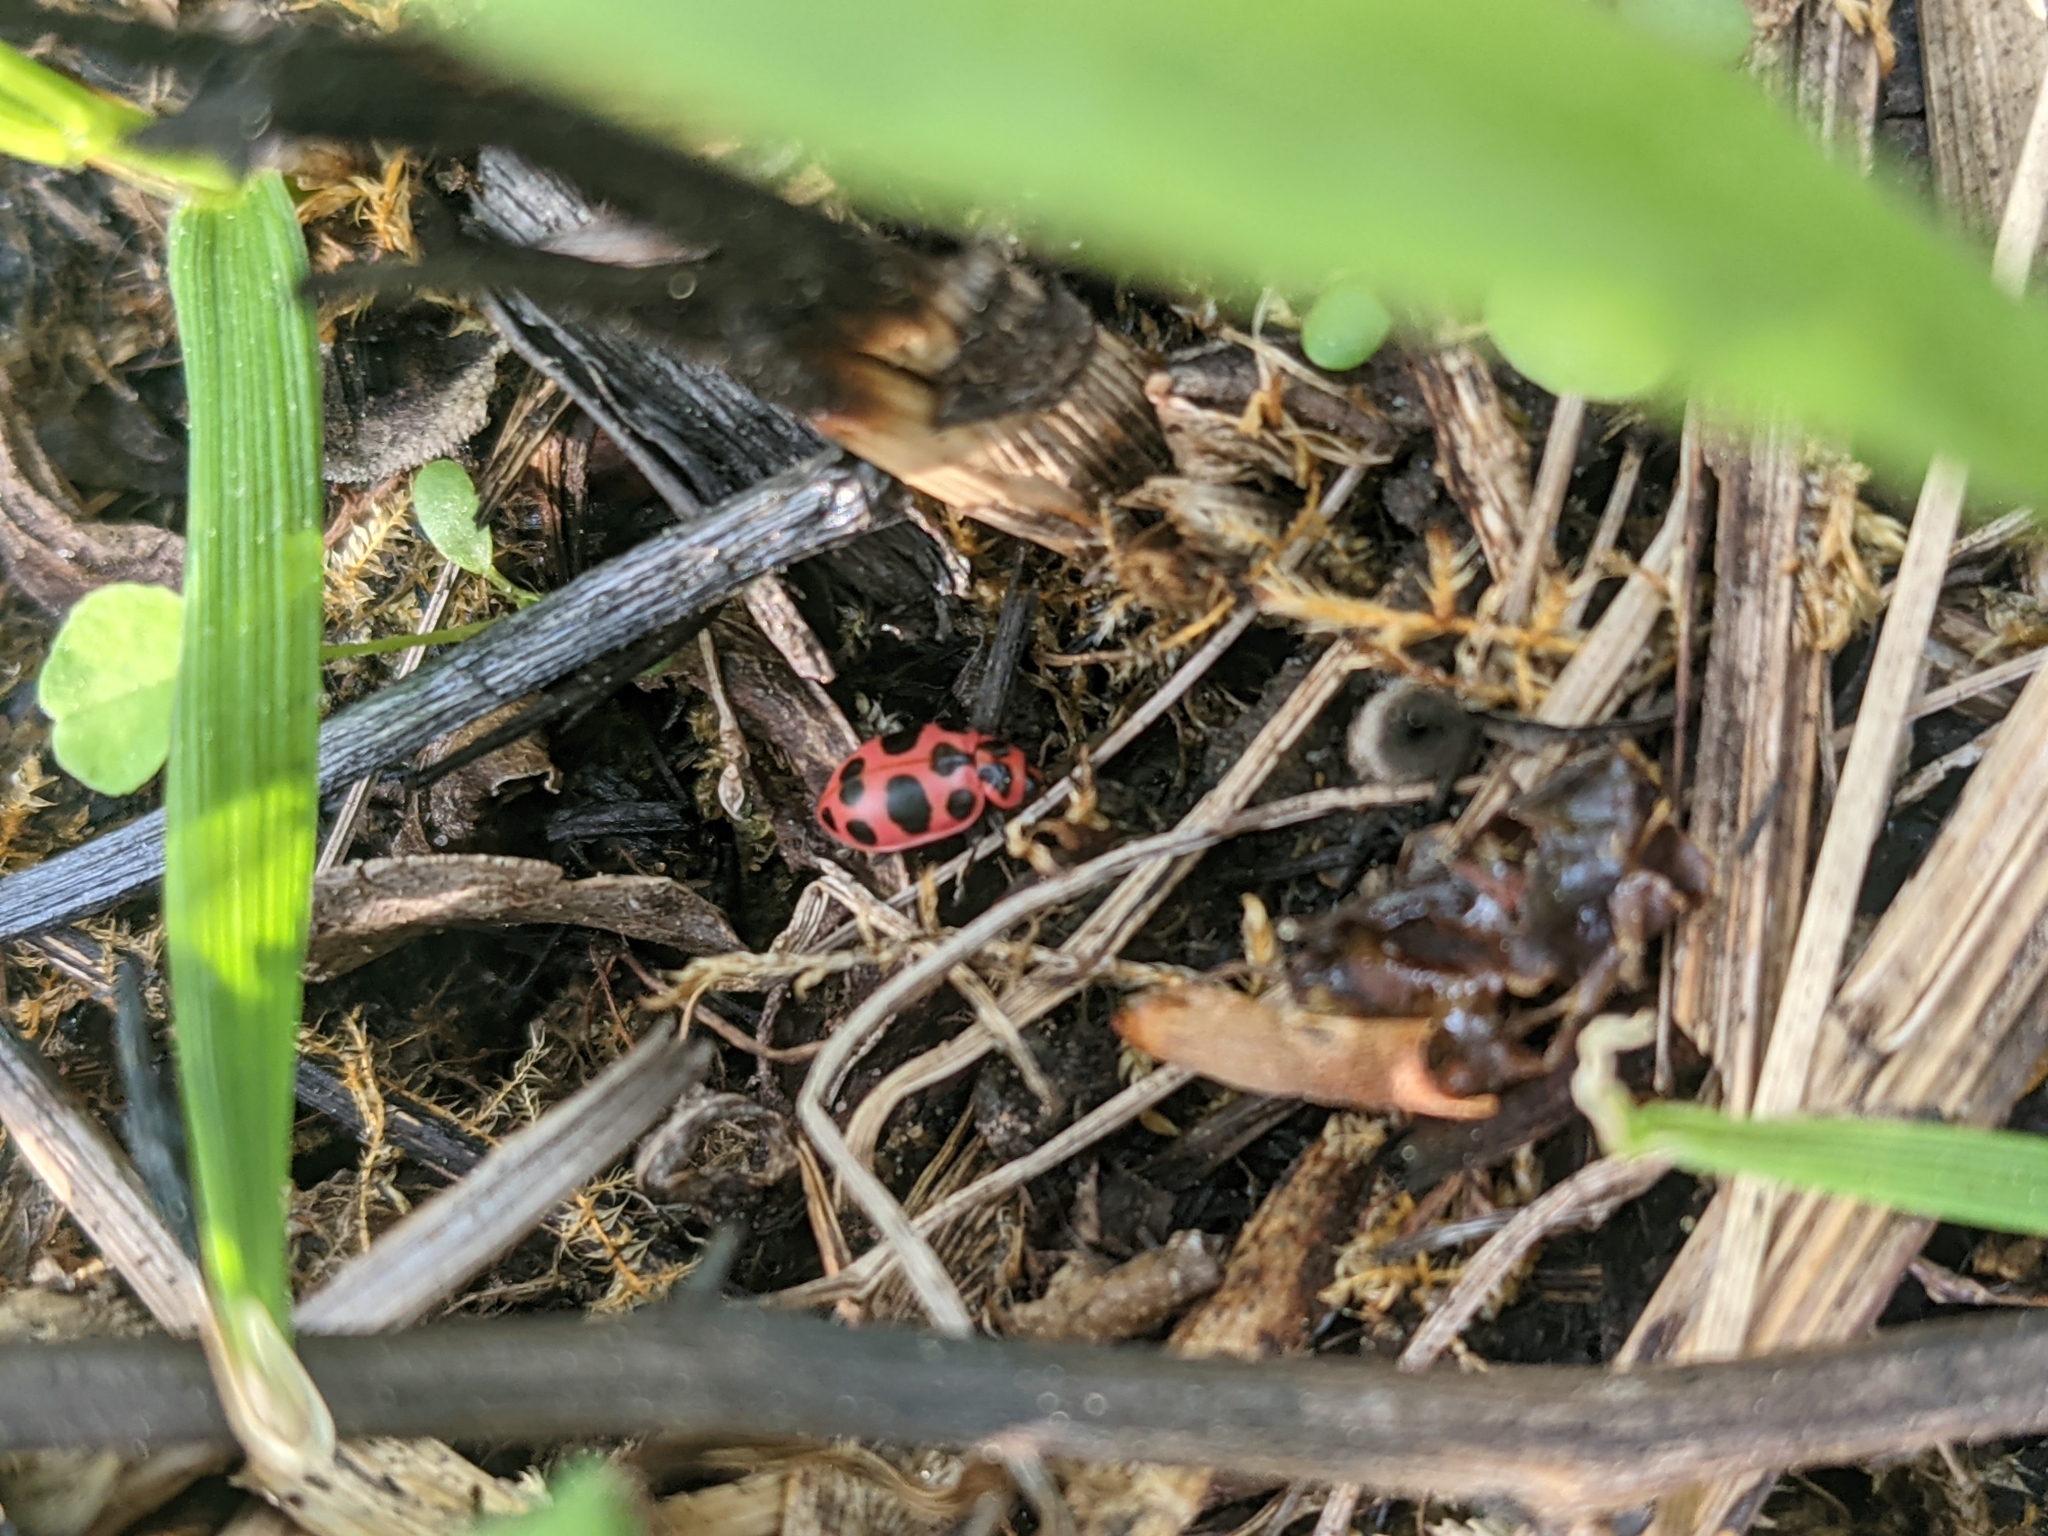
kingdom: Animalia
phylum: Arthropoda
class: Insecta
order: Coleoptera
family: Coccinellidae
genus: Coleomegilla
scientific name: Coleomegilla maculata
